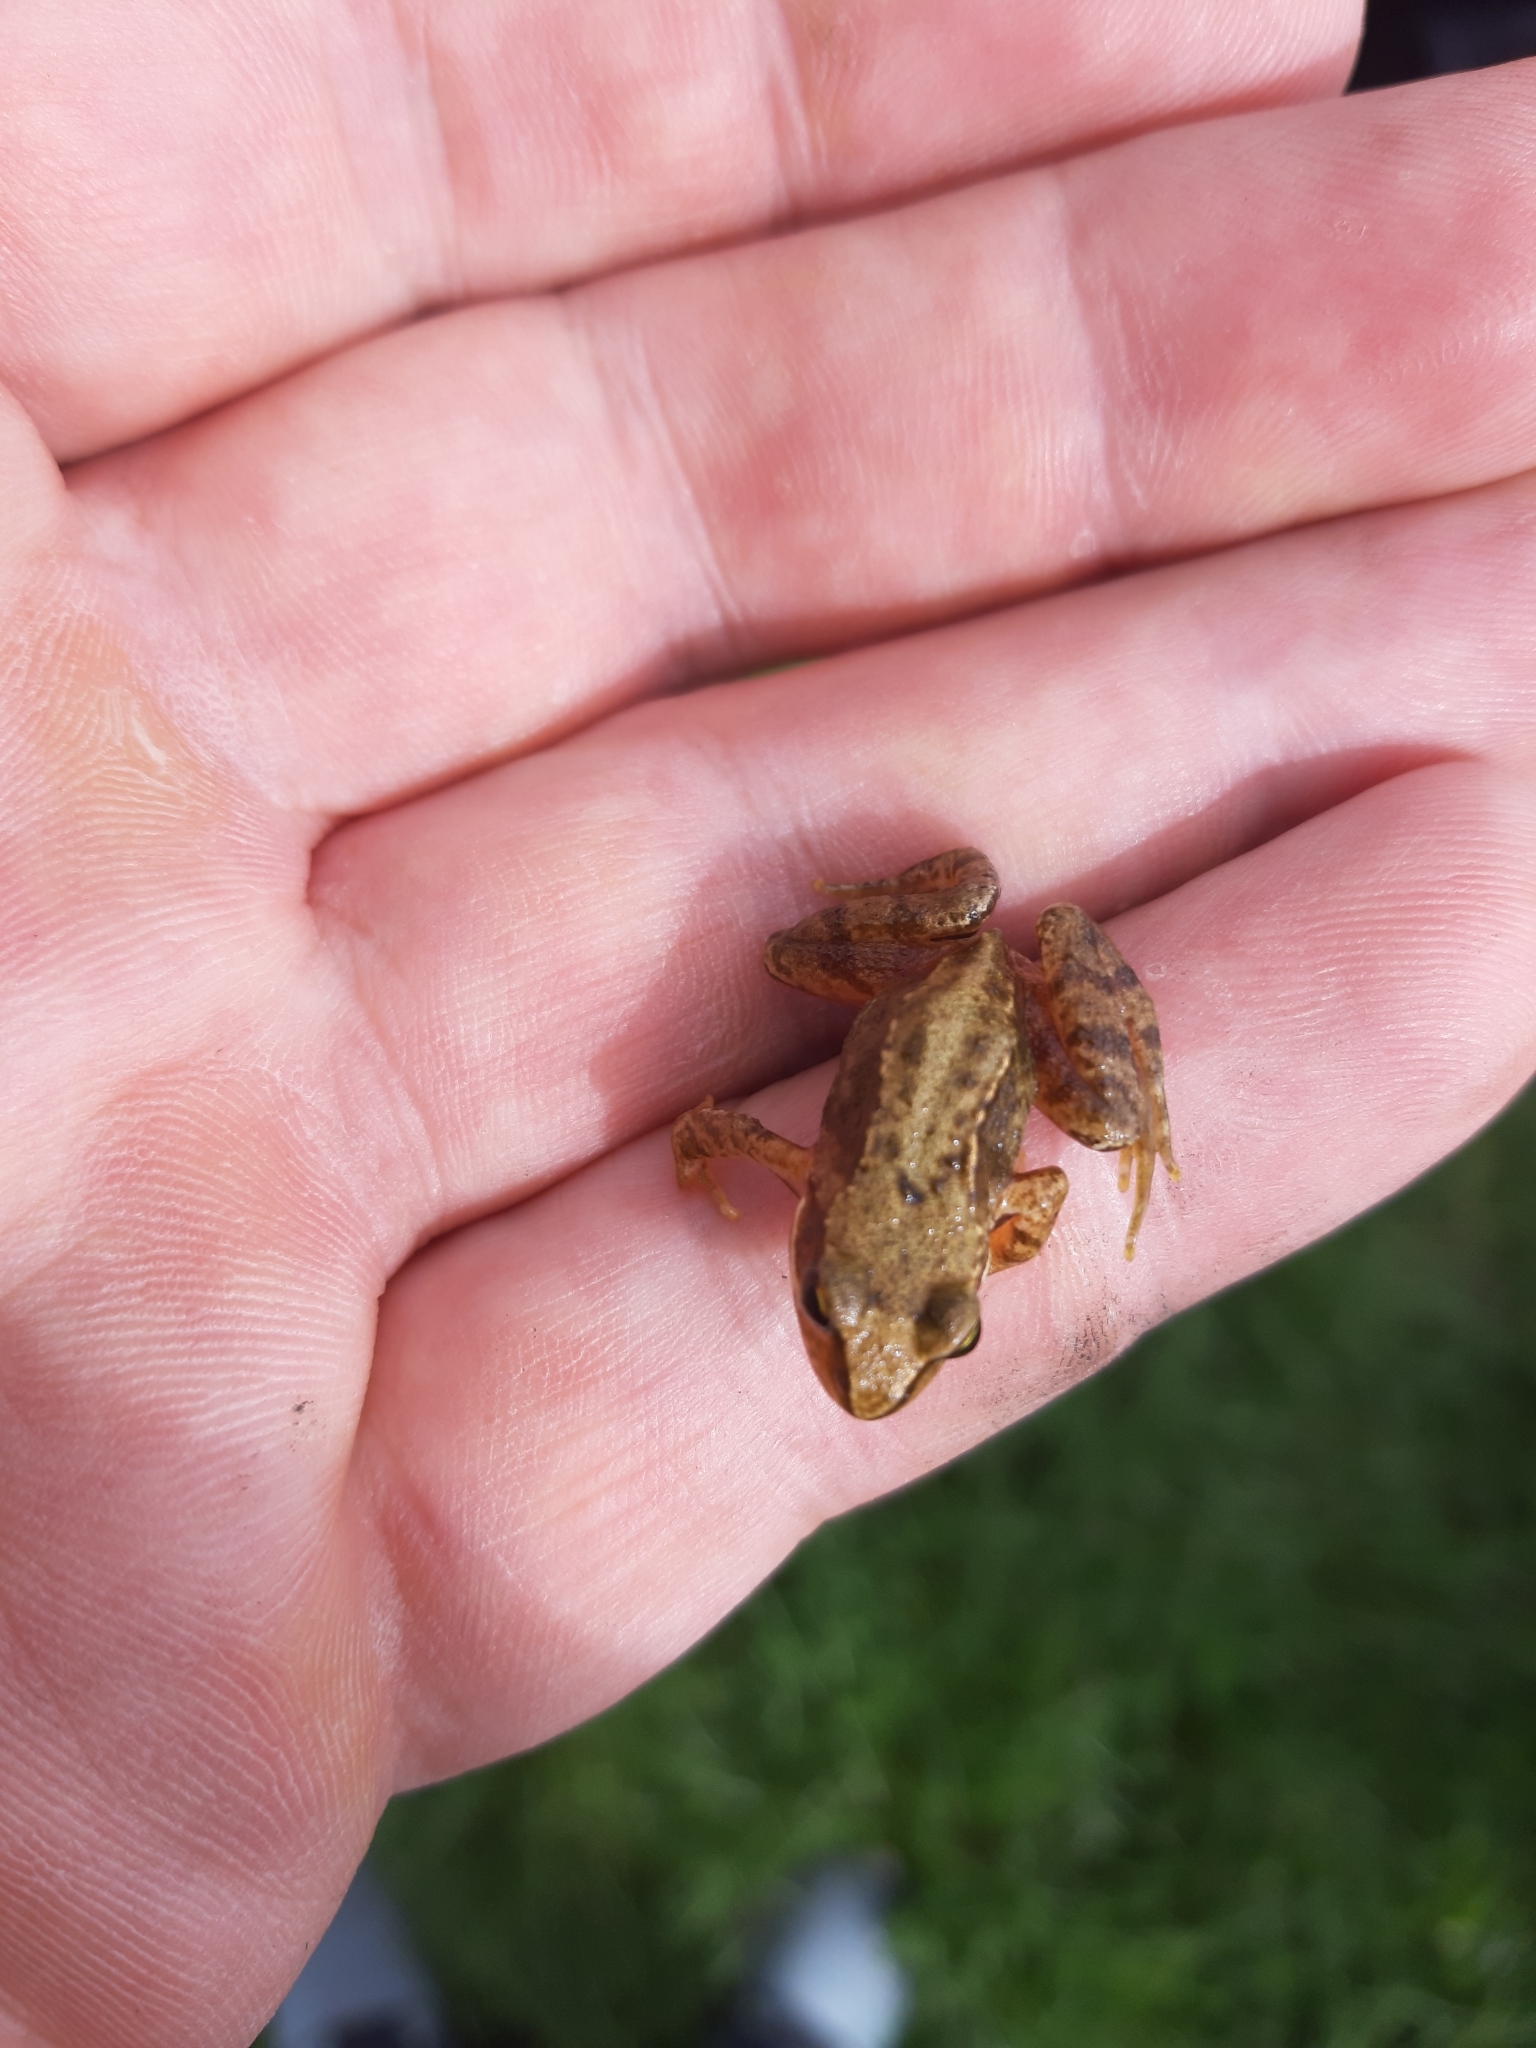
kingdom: Animalia
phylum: Chordata
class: Amphibia
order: Anura
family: Ranidae
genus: Rana
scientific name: Rana temporaria
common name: Common frog
